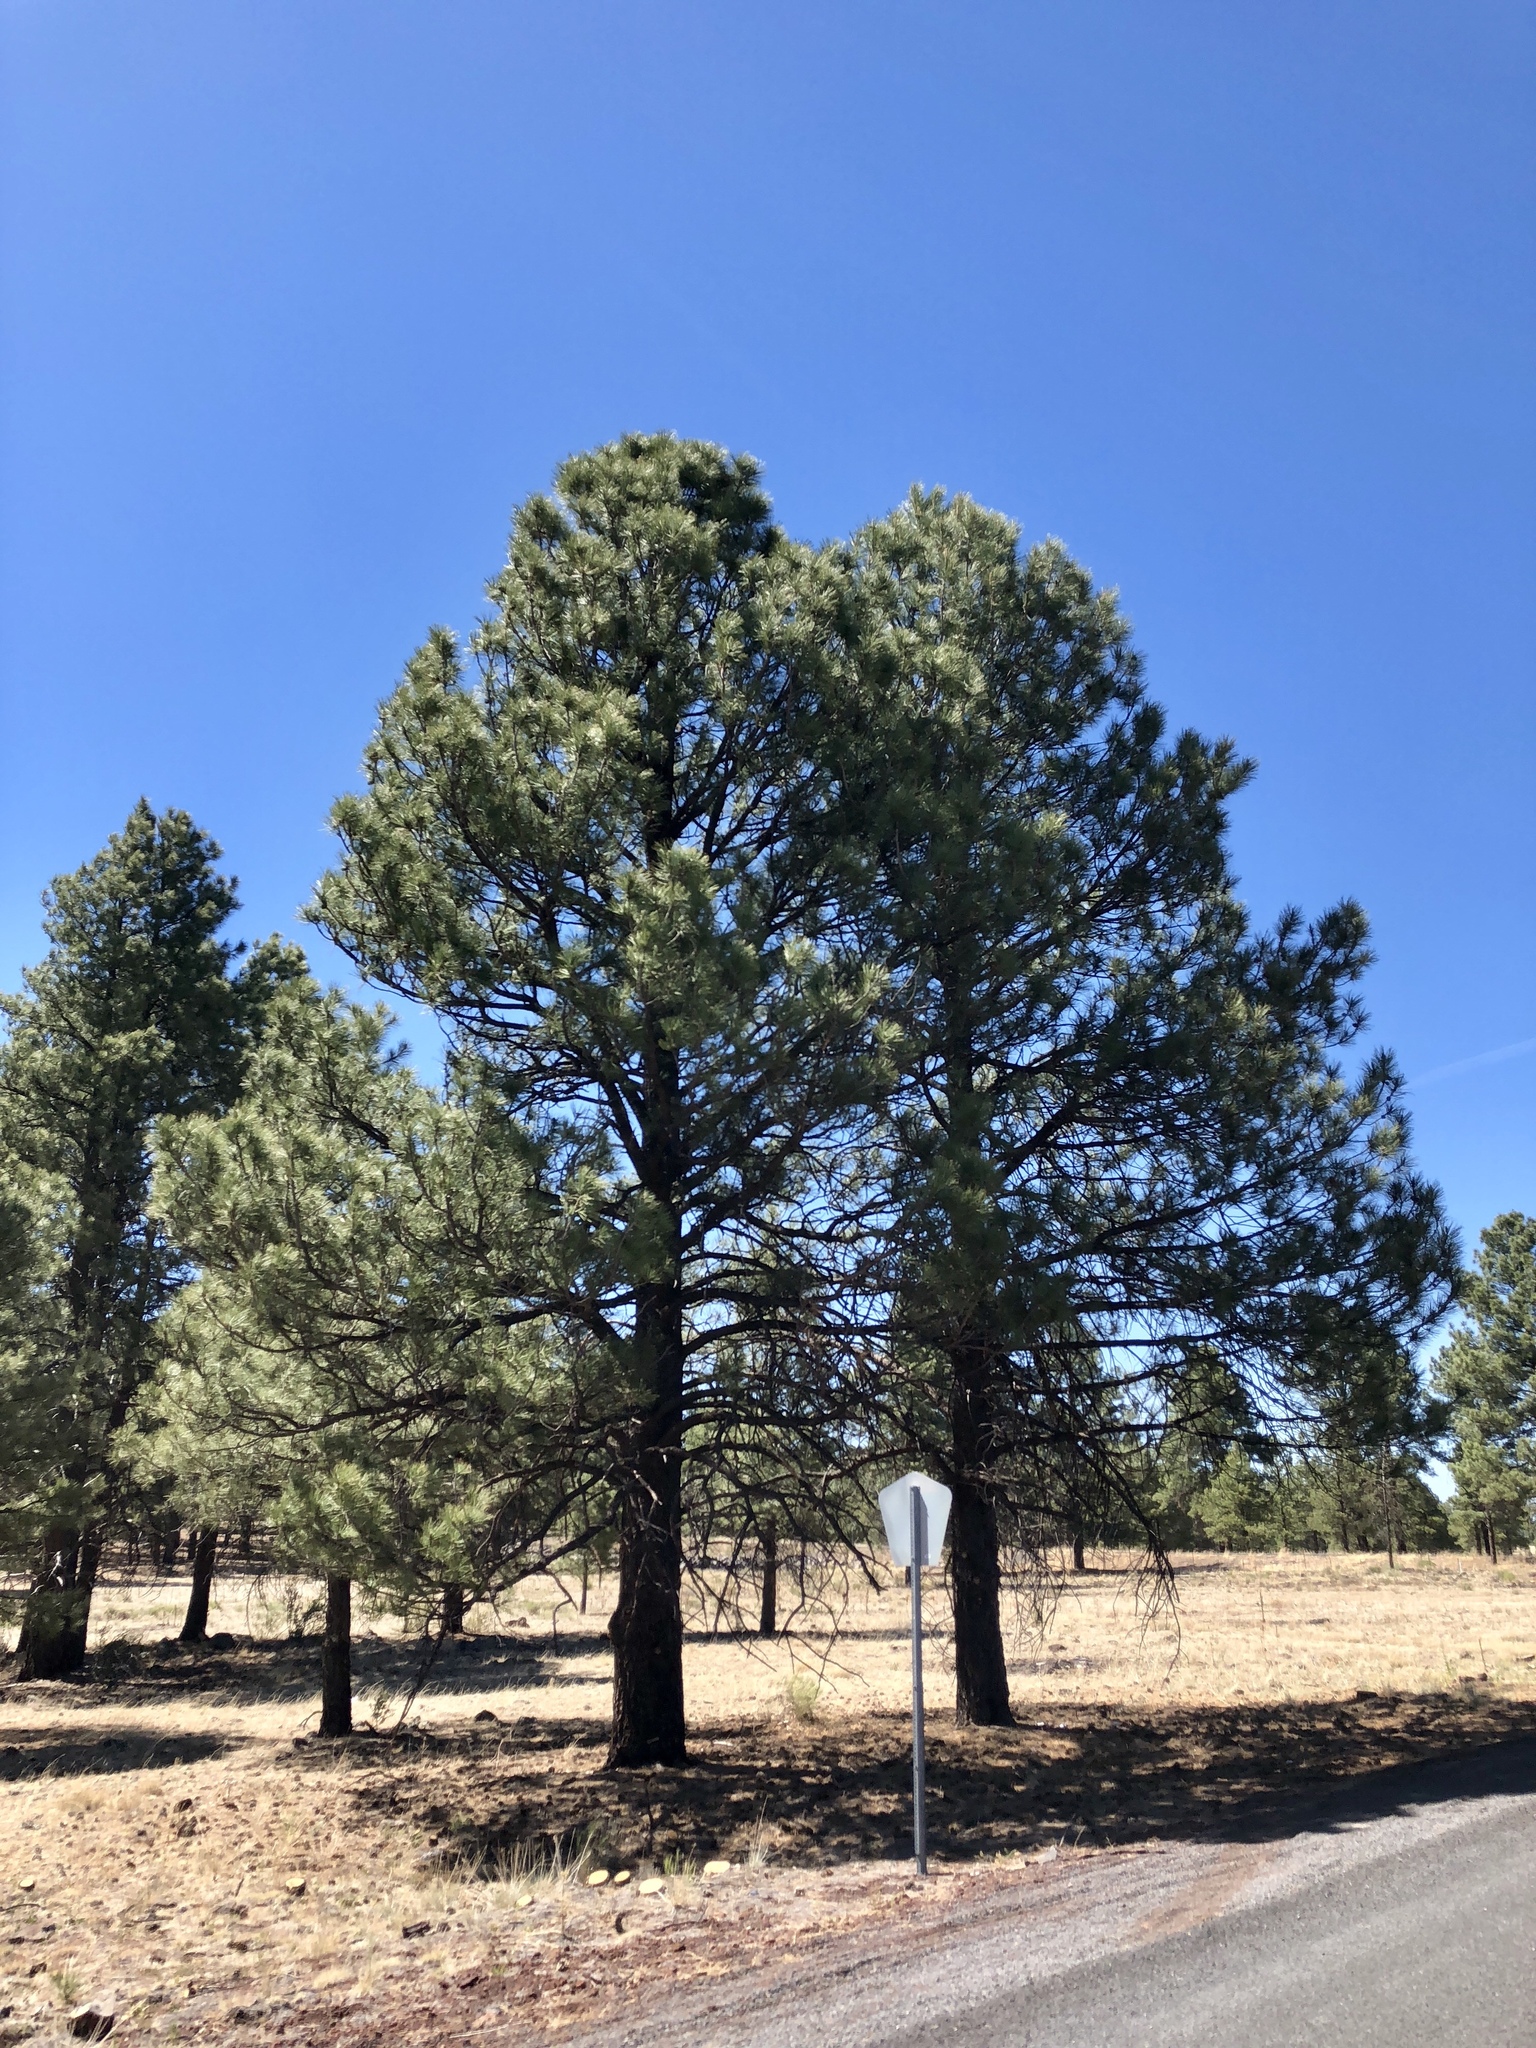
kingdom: Plantae
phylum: Tracheophyta
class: Pinopsida
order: Pinales
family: Pinaceae
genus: Pinus
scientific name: Pinus ponderosa
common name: Western yellow-pine
